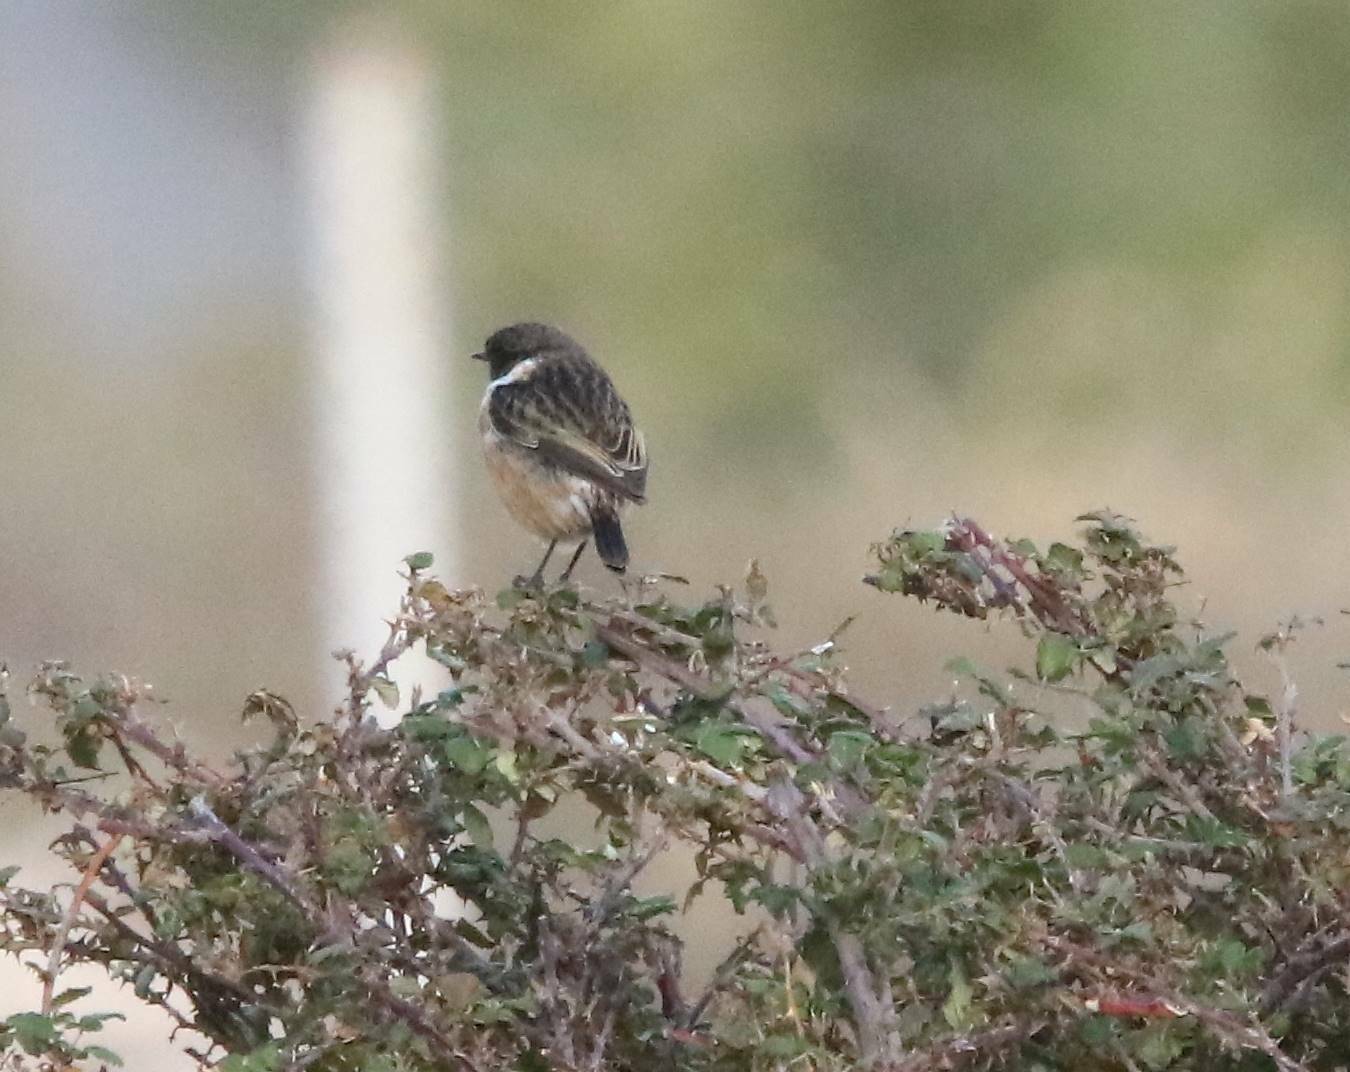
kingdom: Animalia
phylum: Chordata
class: Aves
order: Passeriformes
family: Muscicapidae
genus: Saxicola
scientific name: Saxicola rubicola
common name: European stonechat
